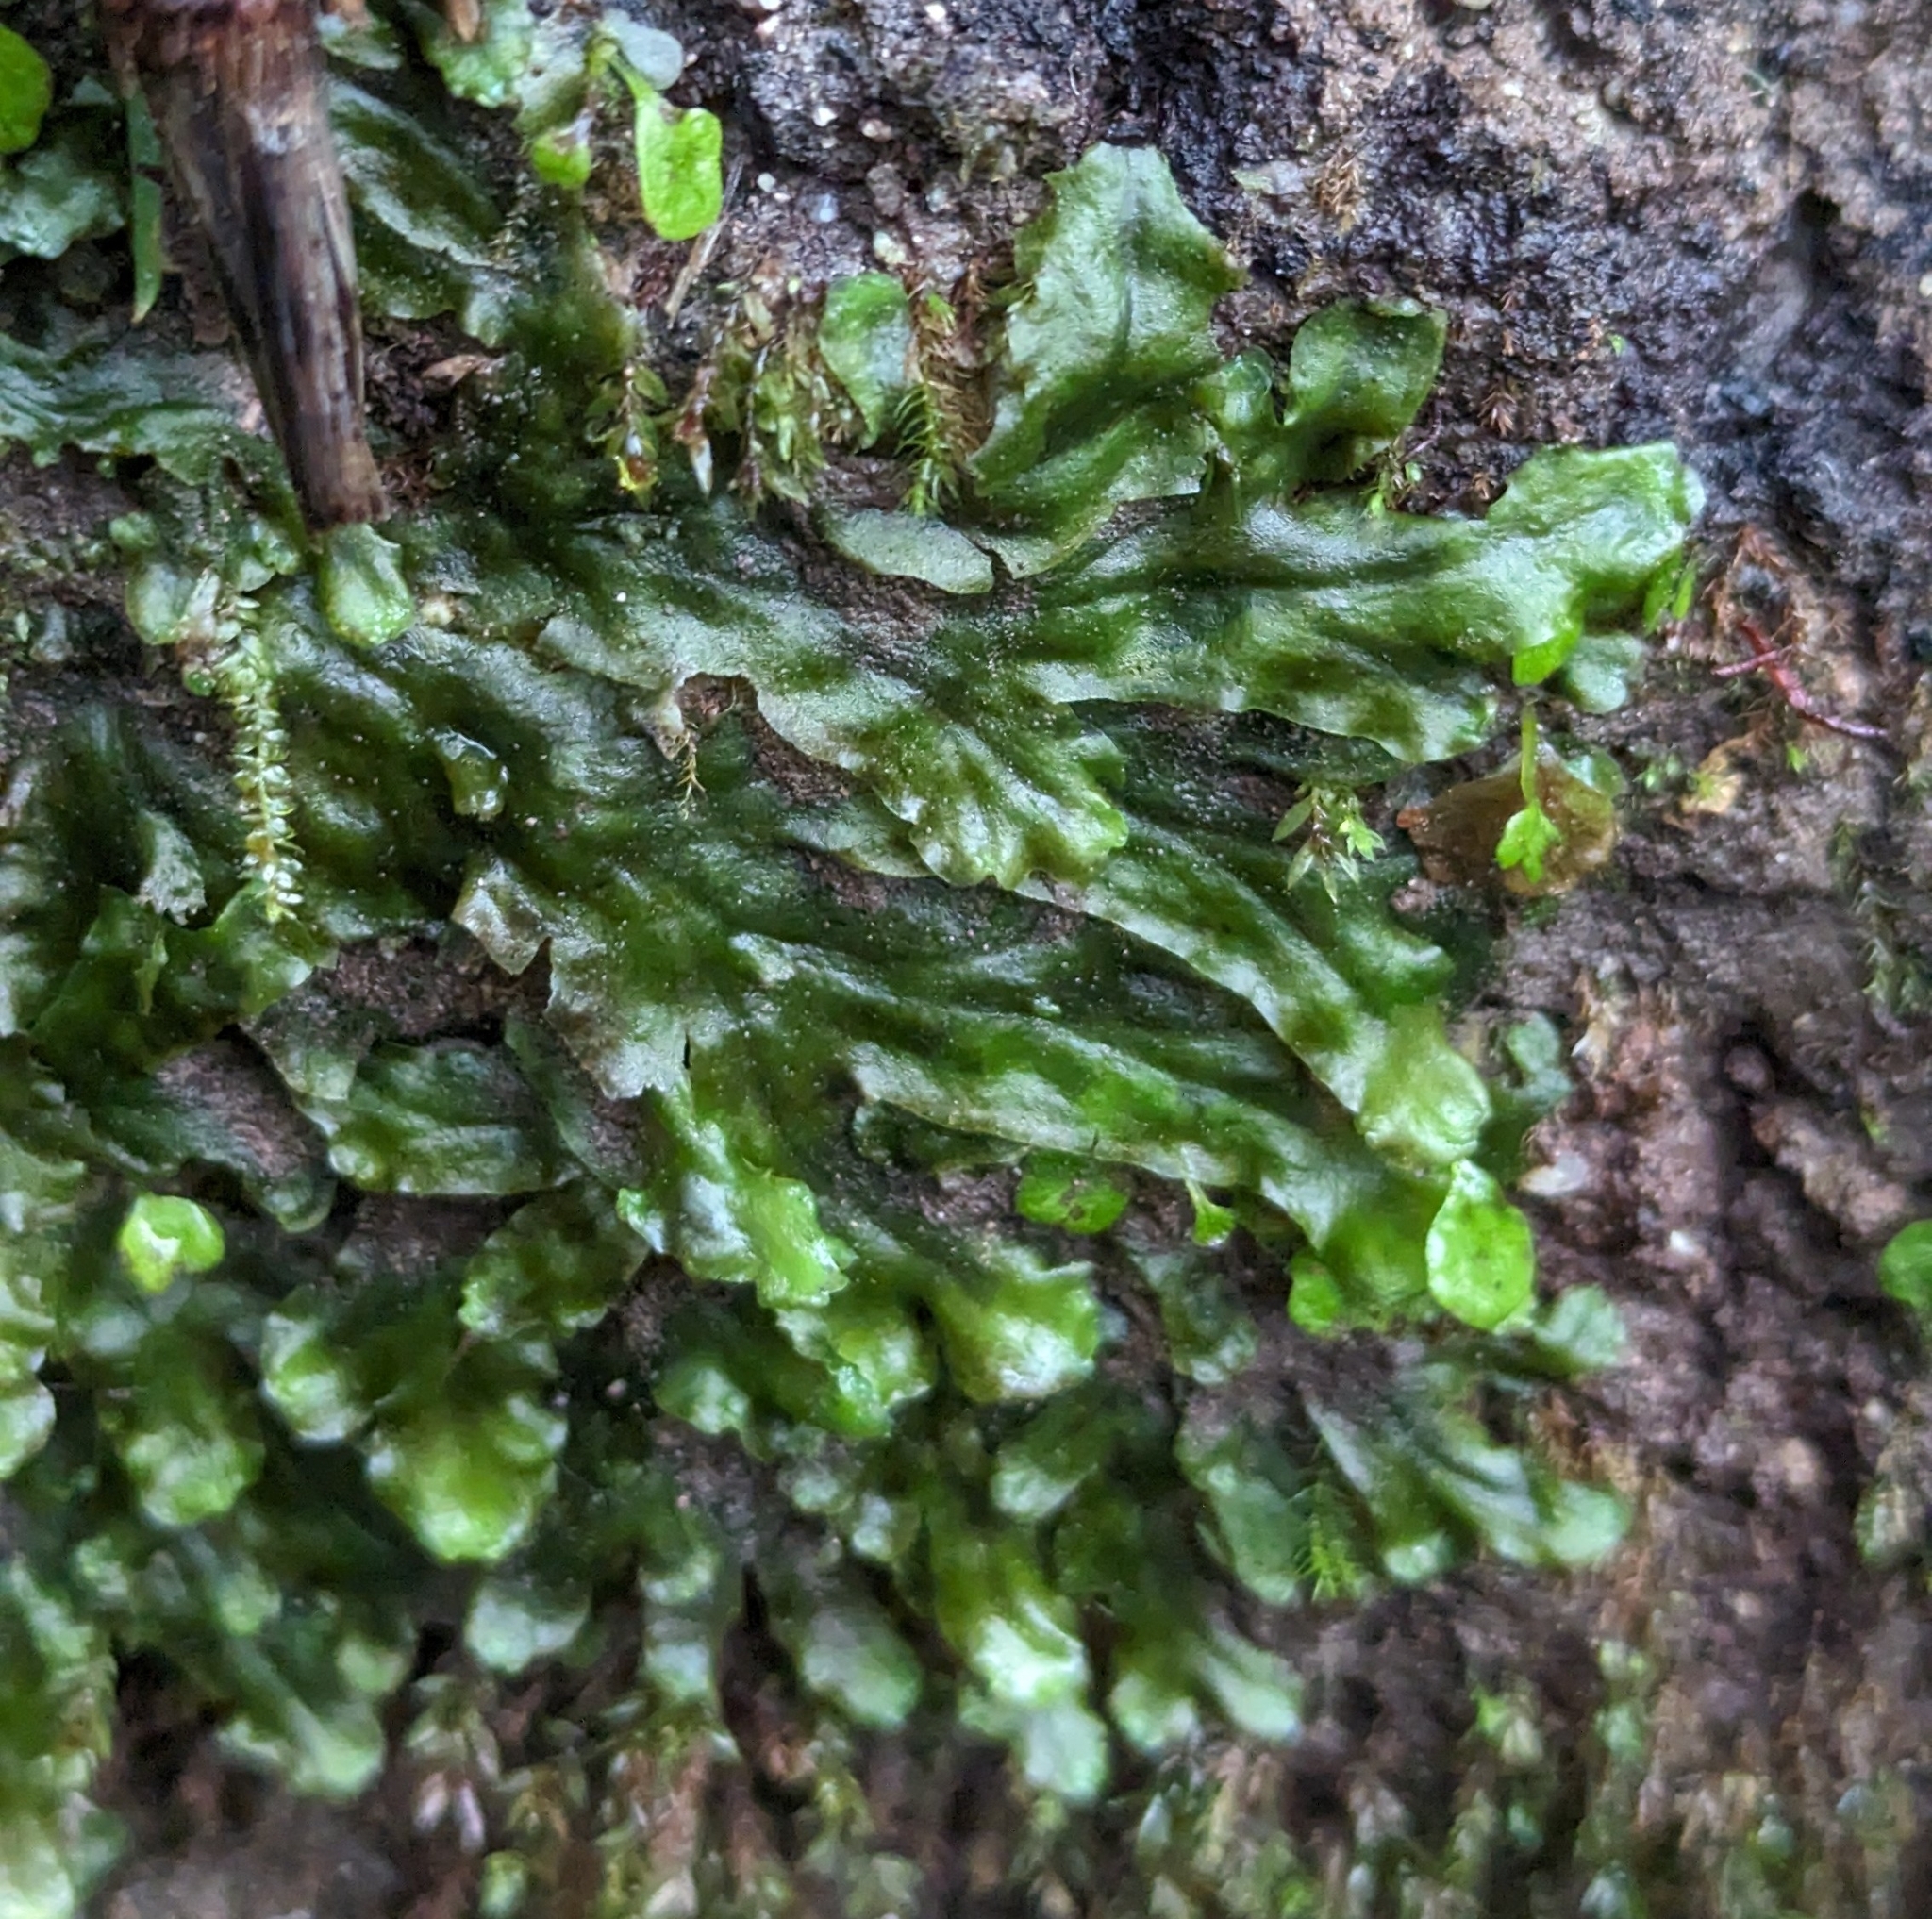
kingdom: Plantae
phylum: Marchantiophyta
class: Jungermanniopsida
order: Pelliales
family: Pelliaceae
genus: Pellia
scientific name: Pellia neesiana
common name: Nees  pellia
